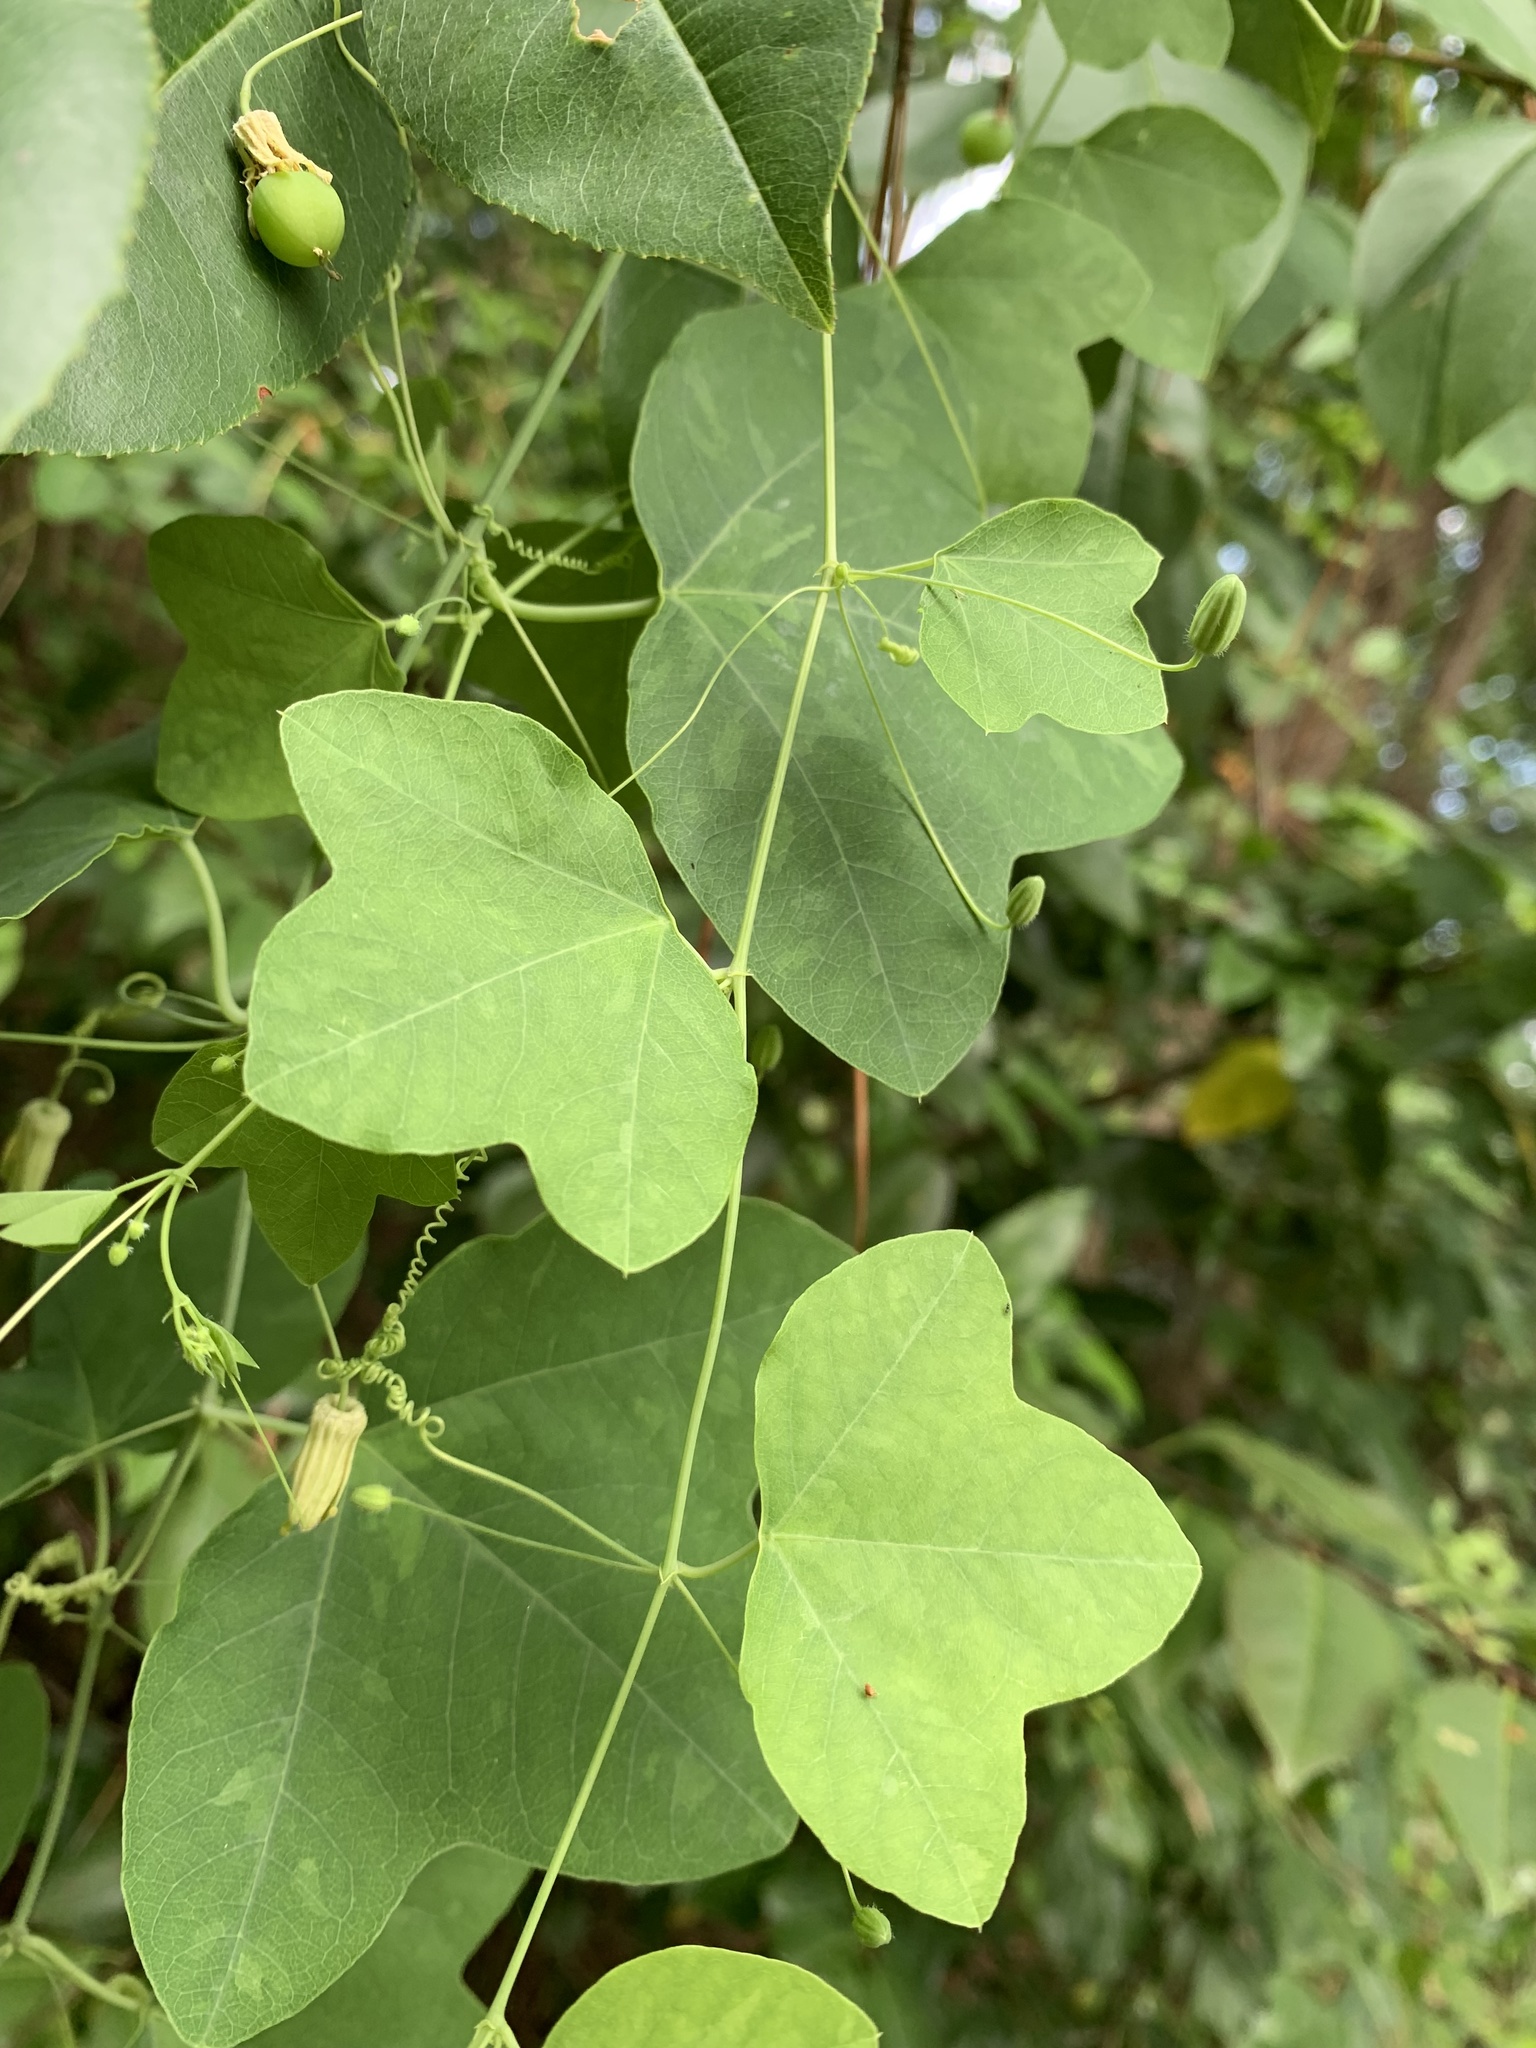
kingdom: Plantae
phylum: Tracheophyta
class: Magnoliopsida
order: Malpighiales
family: Passifloraceae
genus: Passiflora
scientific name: Passiflora lutea
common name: Yellow passionflower
